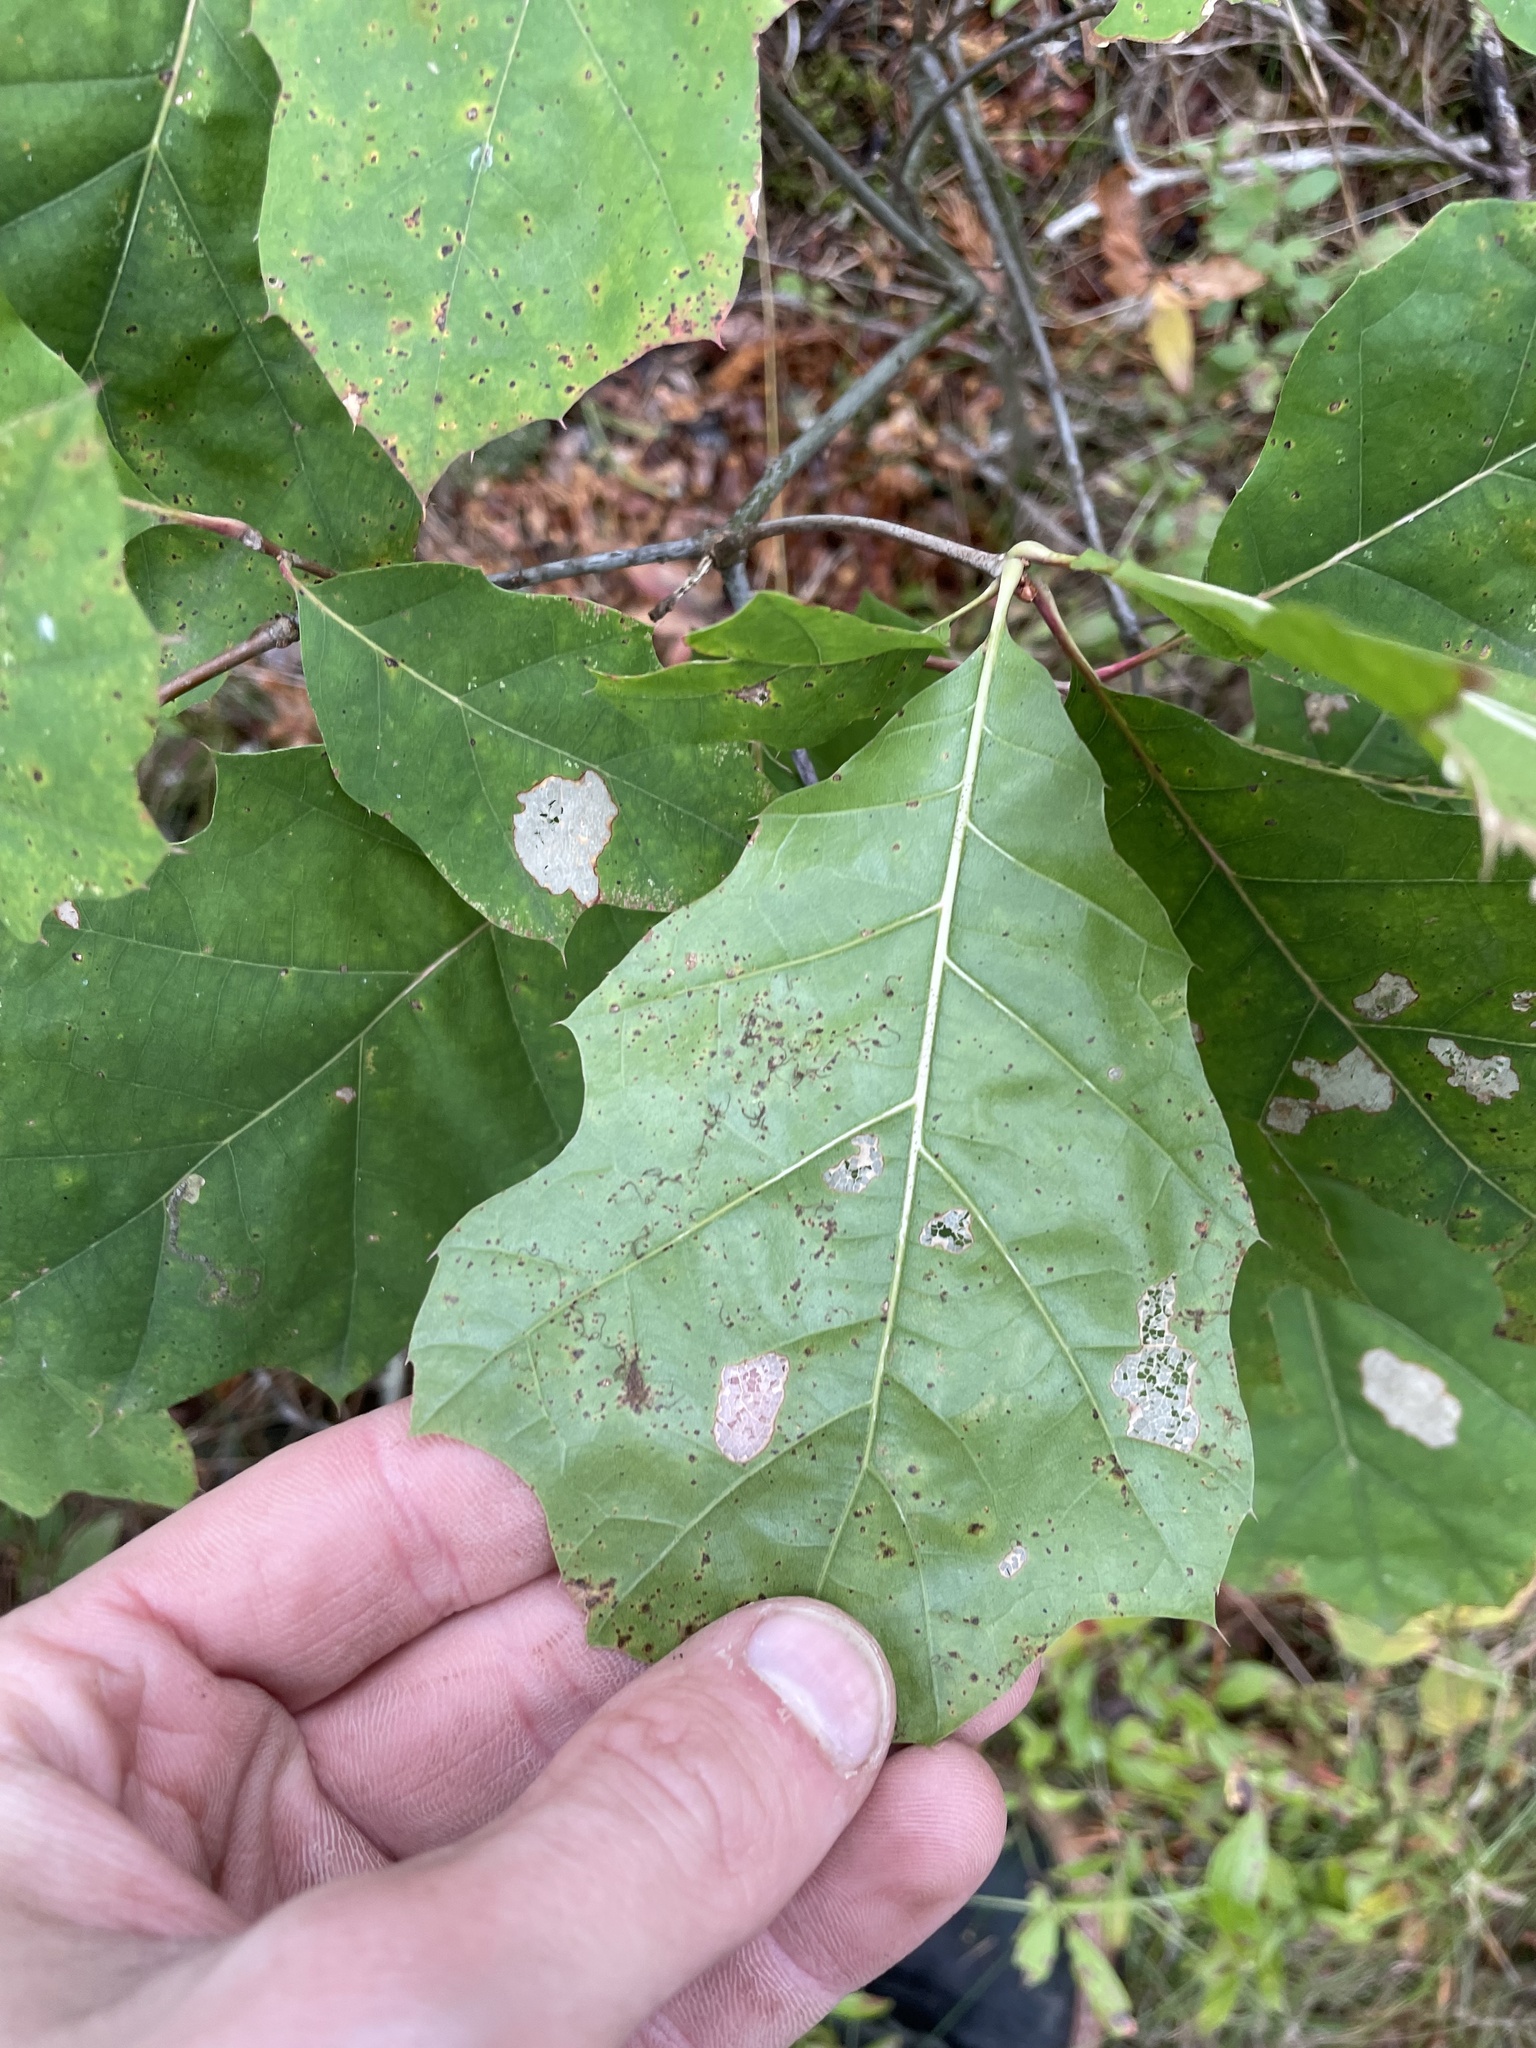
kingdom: Plantae
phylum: Tracheophyta
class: Magnoliopsida
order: Fagales
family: Fagaceae
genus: Quercus
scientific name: Quercus rubra
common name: Red oak
